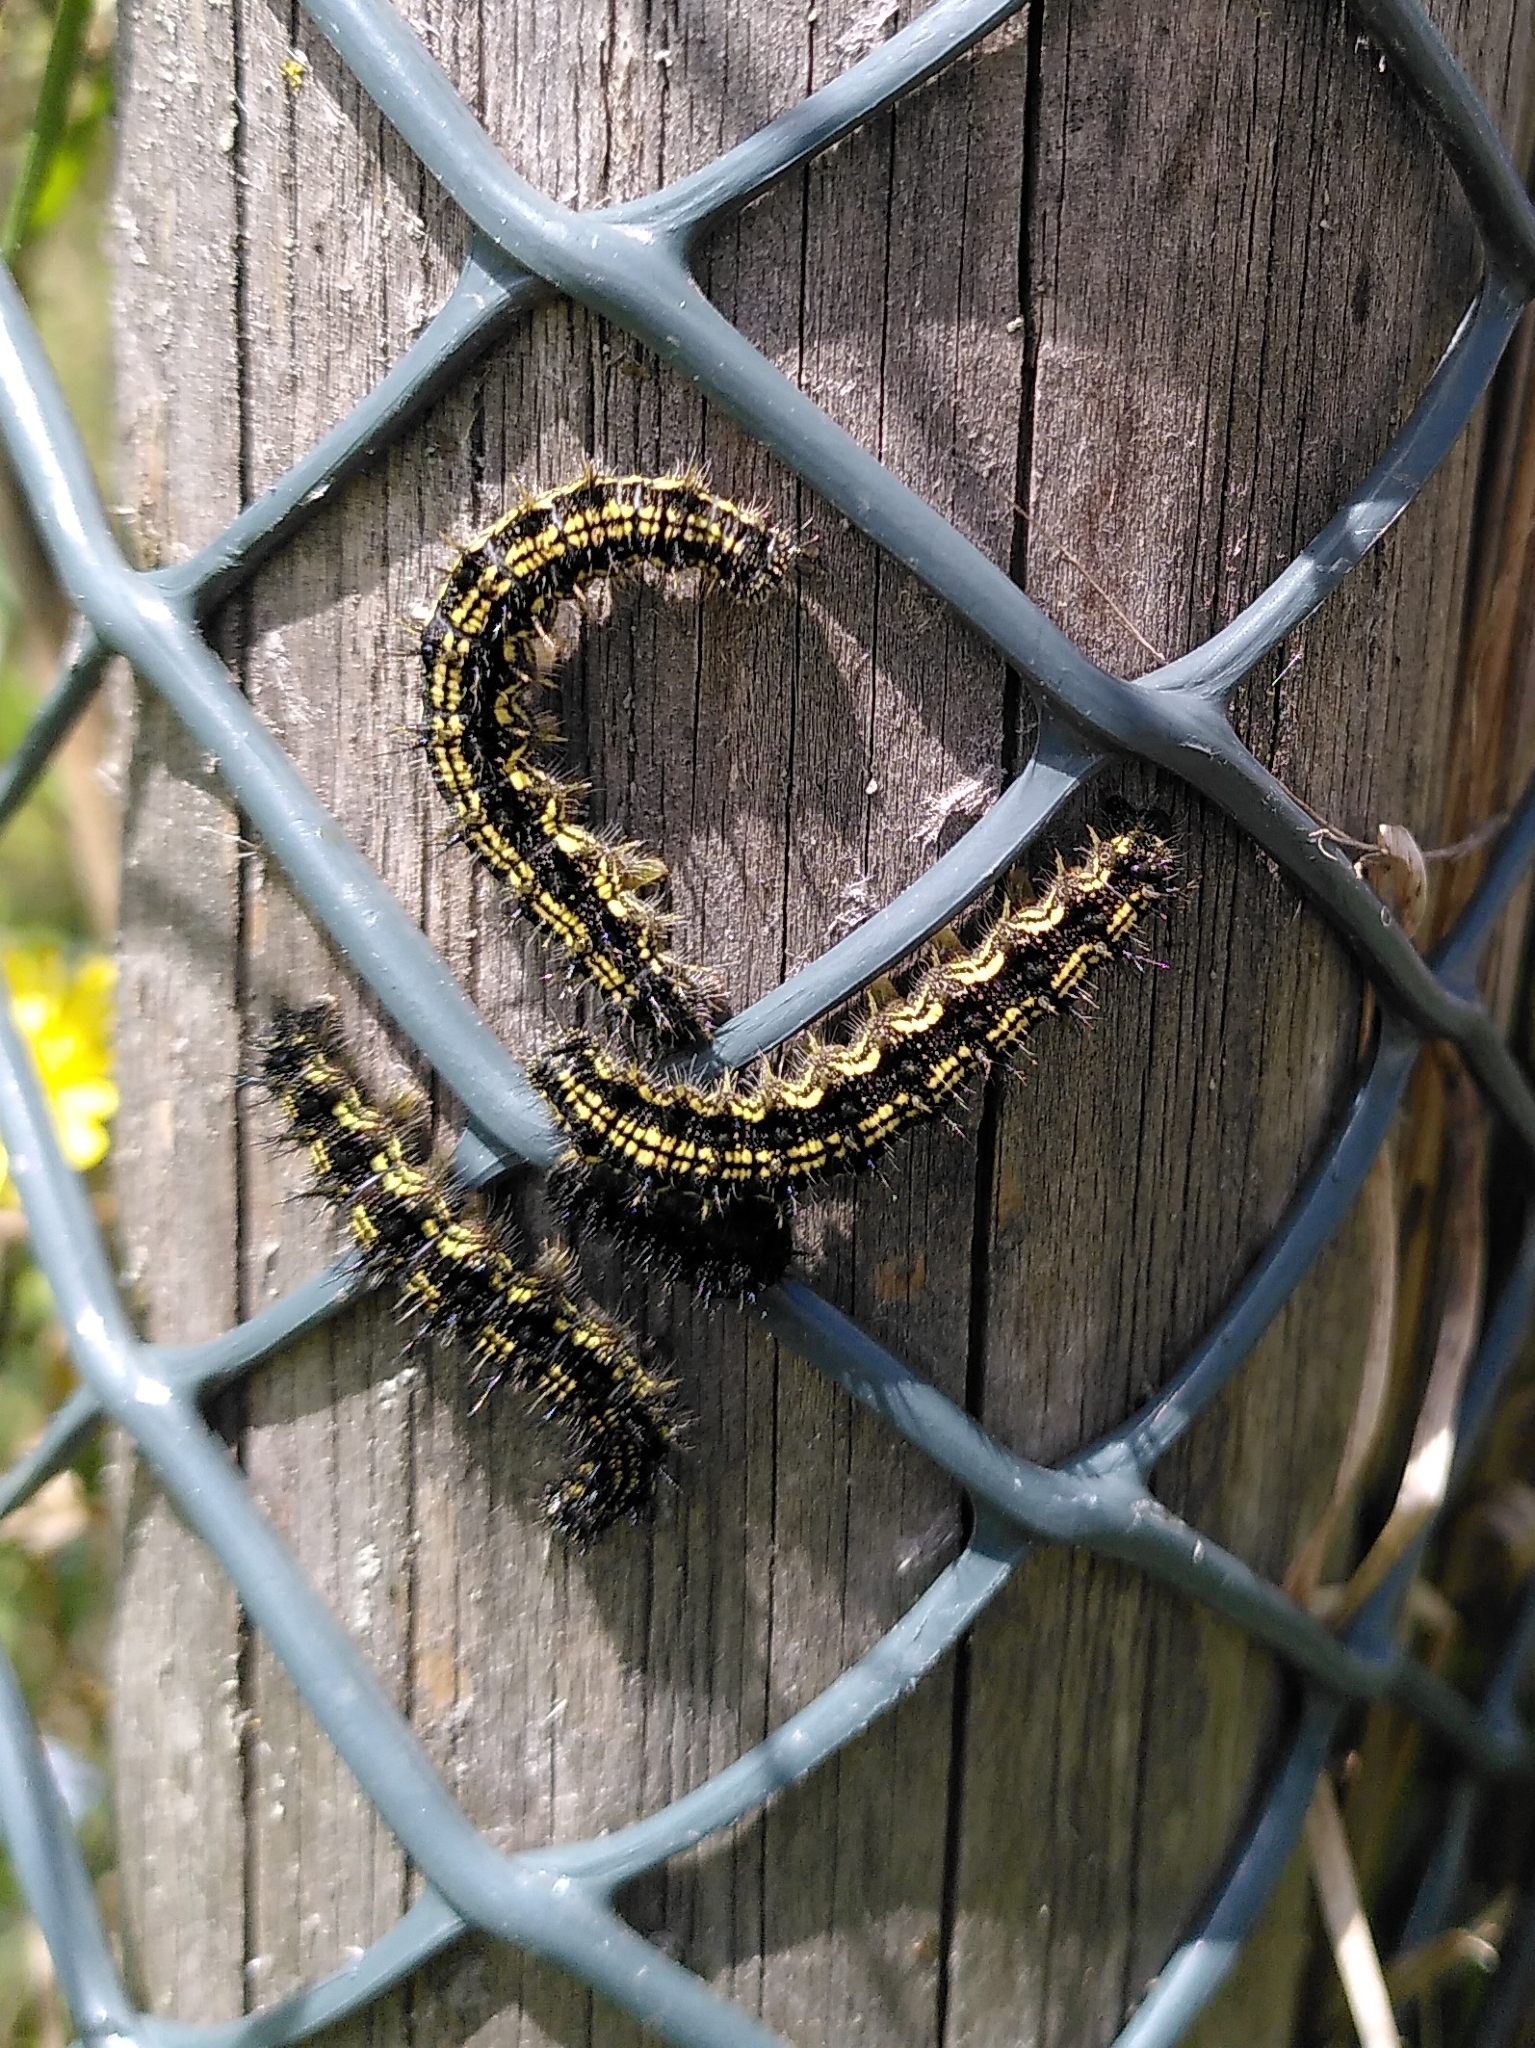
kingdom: Animalia
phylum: Arthropoda
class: Insecta
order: Lepidoptera
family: Nymphalidae
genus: Aglais
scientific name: Aglais urticae
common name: Small tortoiseshell
